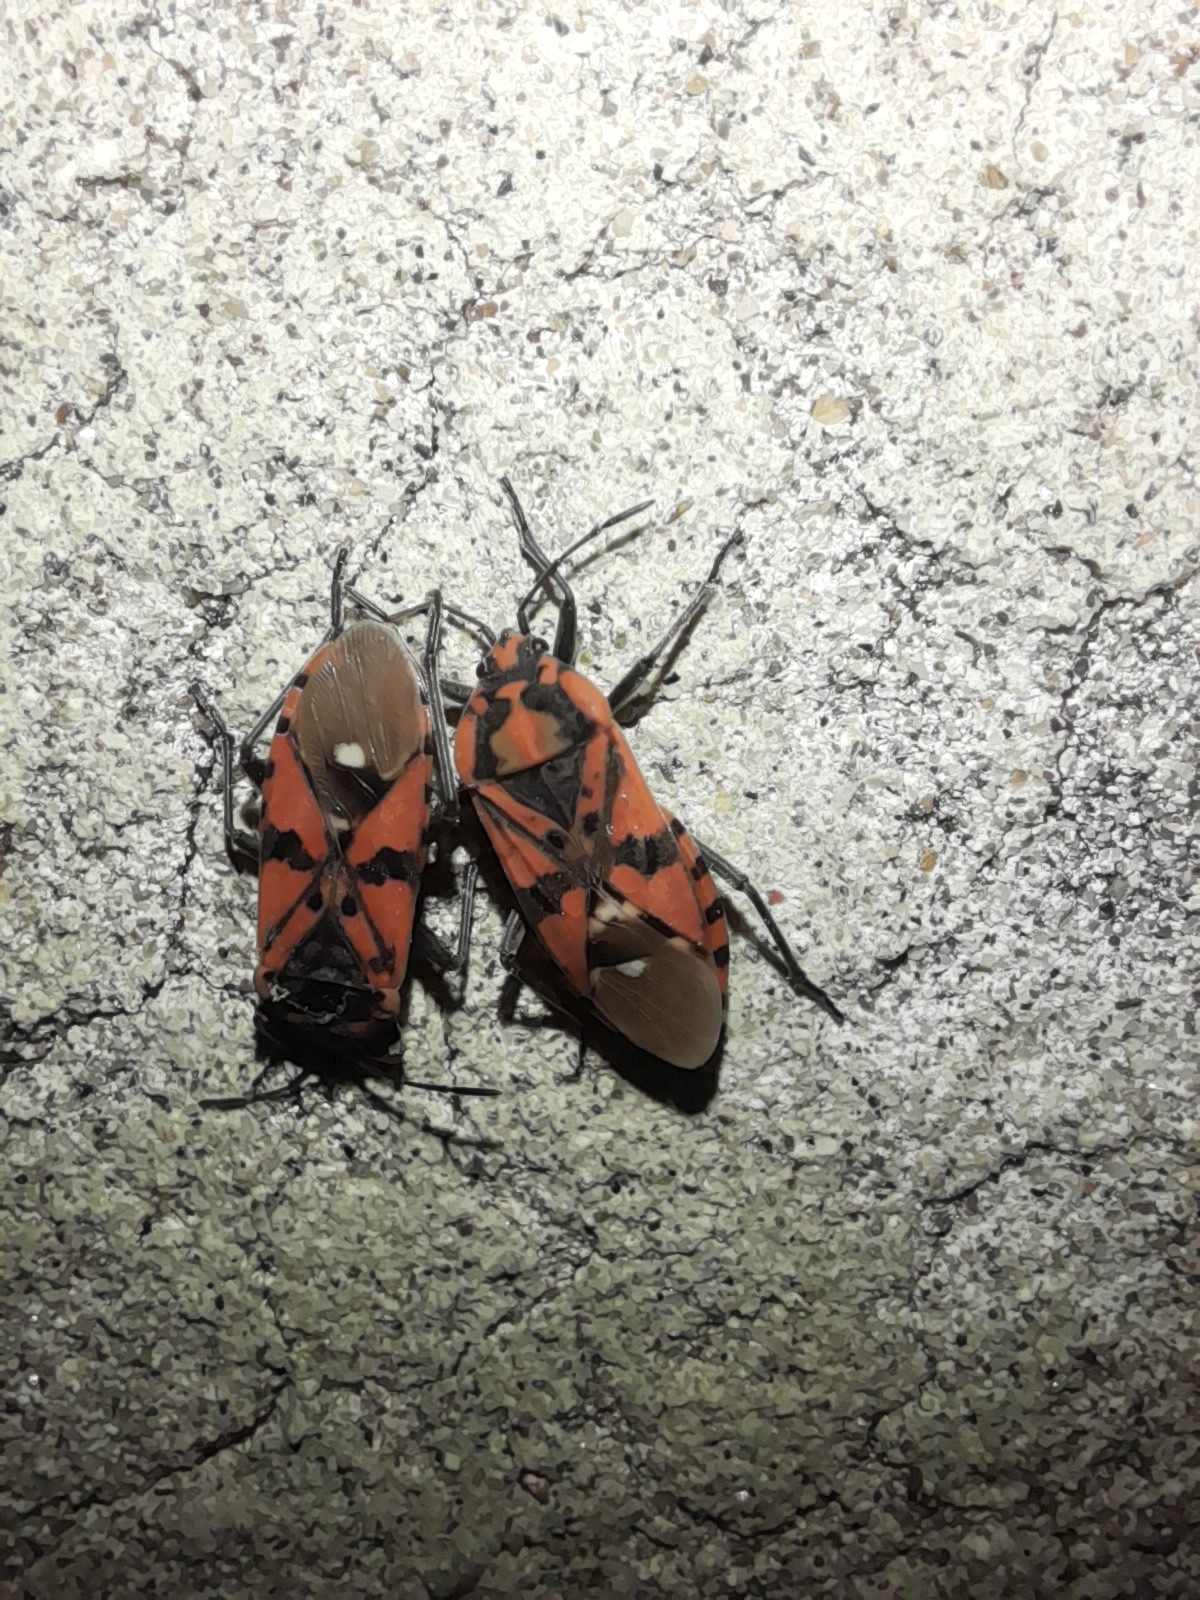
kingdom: Animalia
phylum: Arthropoda
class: Insecta
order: Hemiptera
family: Lygaeidae
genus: Spilostethus
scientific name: Spilostethus pandurus
